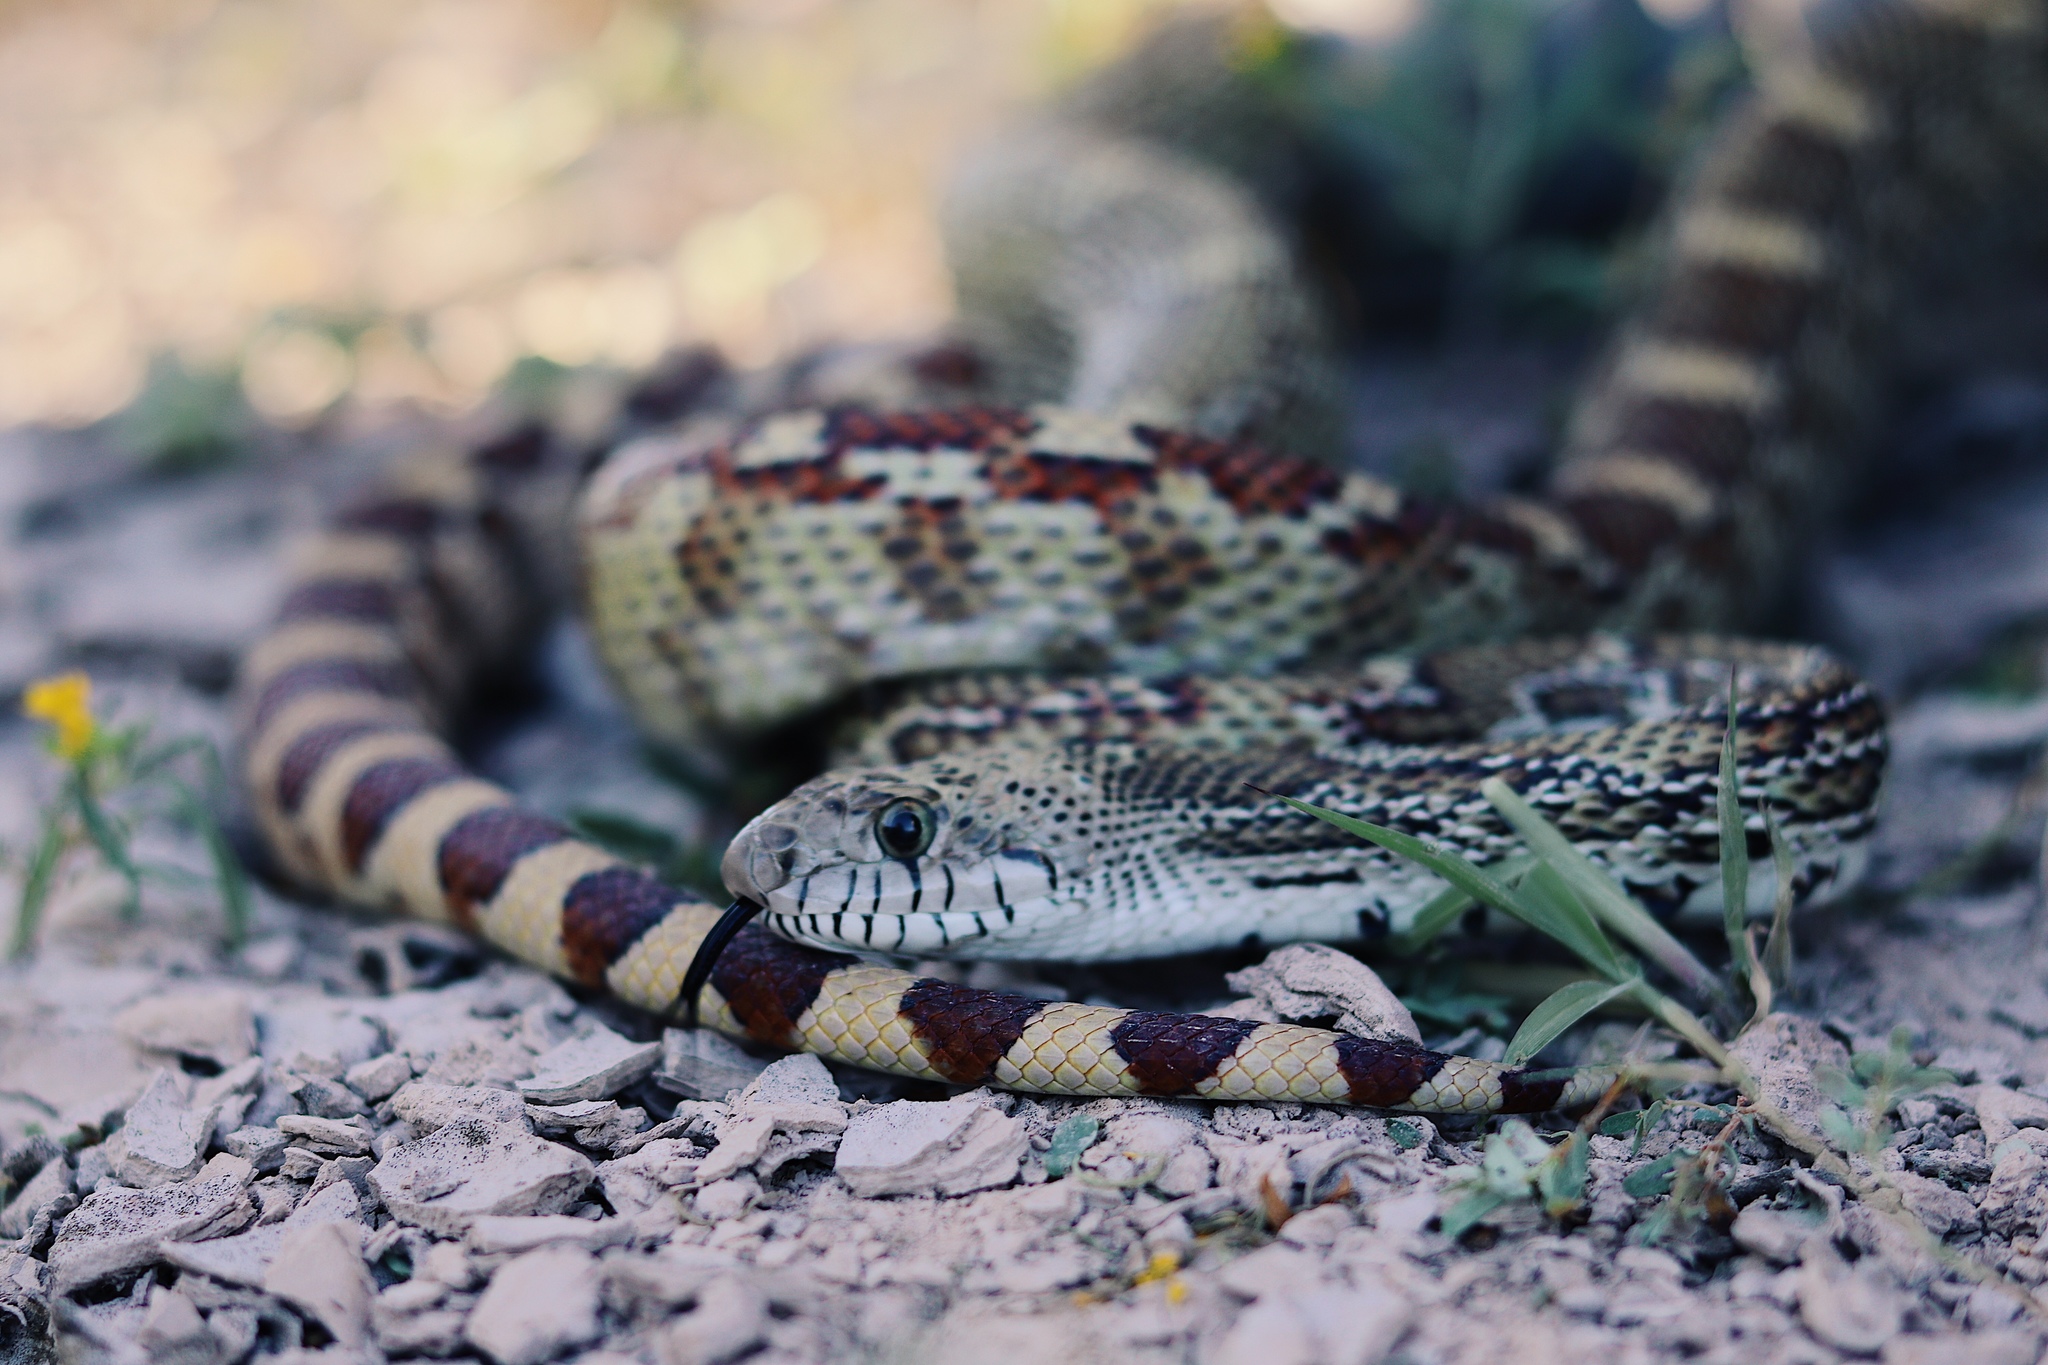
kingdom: Animalia
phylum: Chordata
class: Squamata
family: Colubridae
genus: Pituophis
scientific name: Pituophis catenifer
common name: Gopher snake
